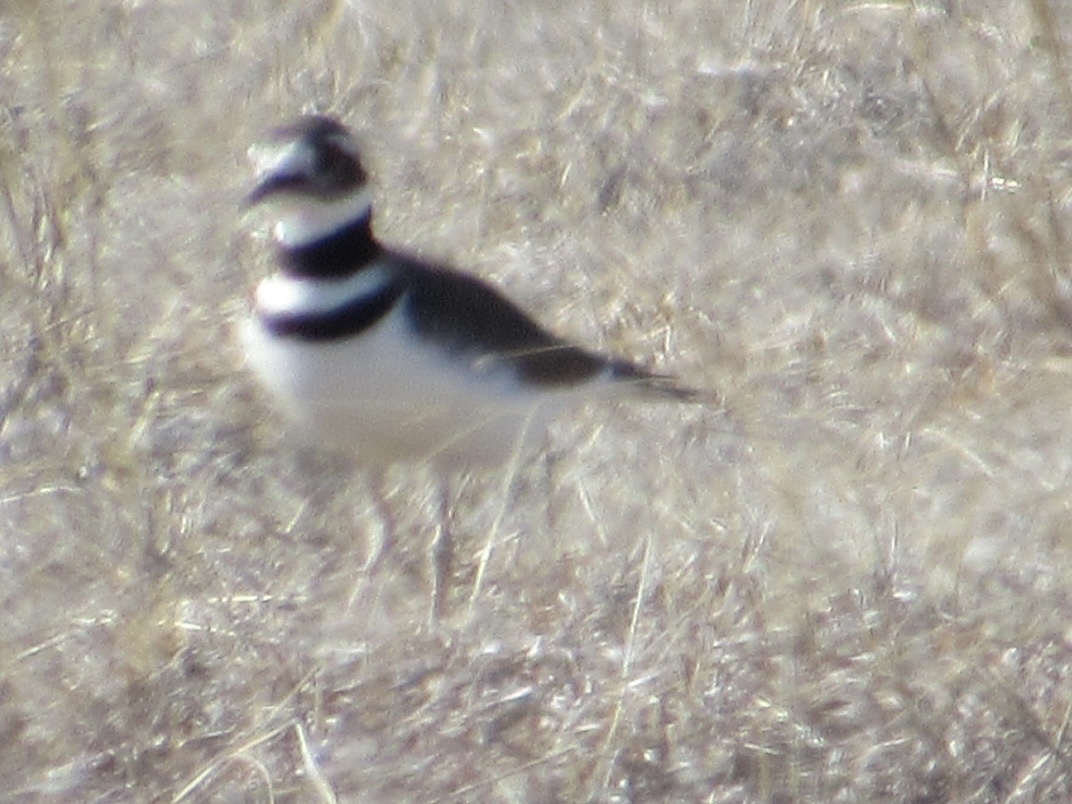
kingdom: Animalia
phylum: Chordata
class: Aves
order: Charadriiformes
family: Charadriidae
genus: Charadrius
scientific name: Charadrius vociferus
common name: Killdeer
